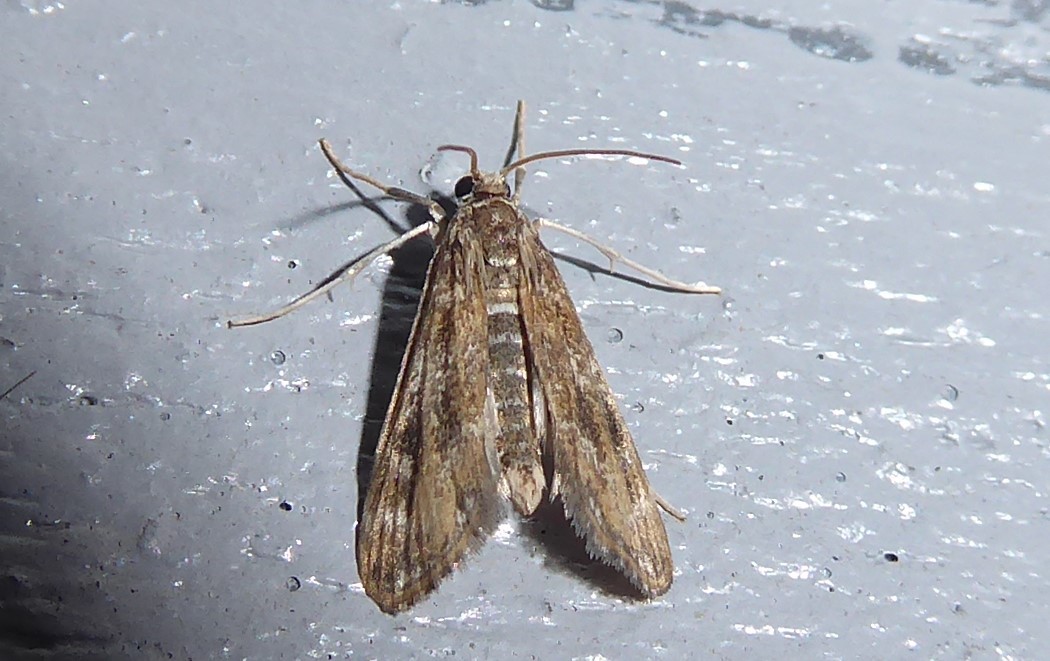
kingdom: Animalia
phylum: Arthropoda
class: Insecta
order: Lepidoptera
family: Crambidae
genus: Hygraula
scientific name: Hygraula nitens
